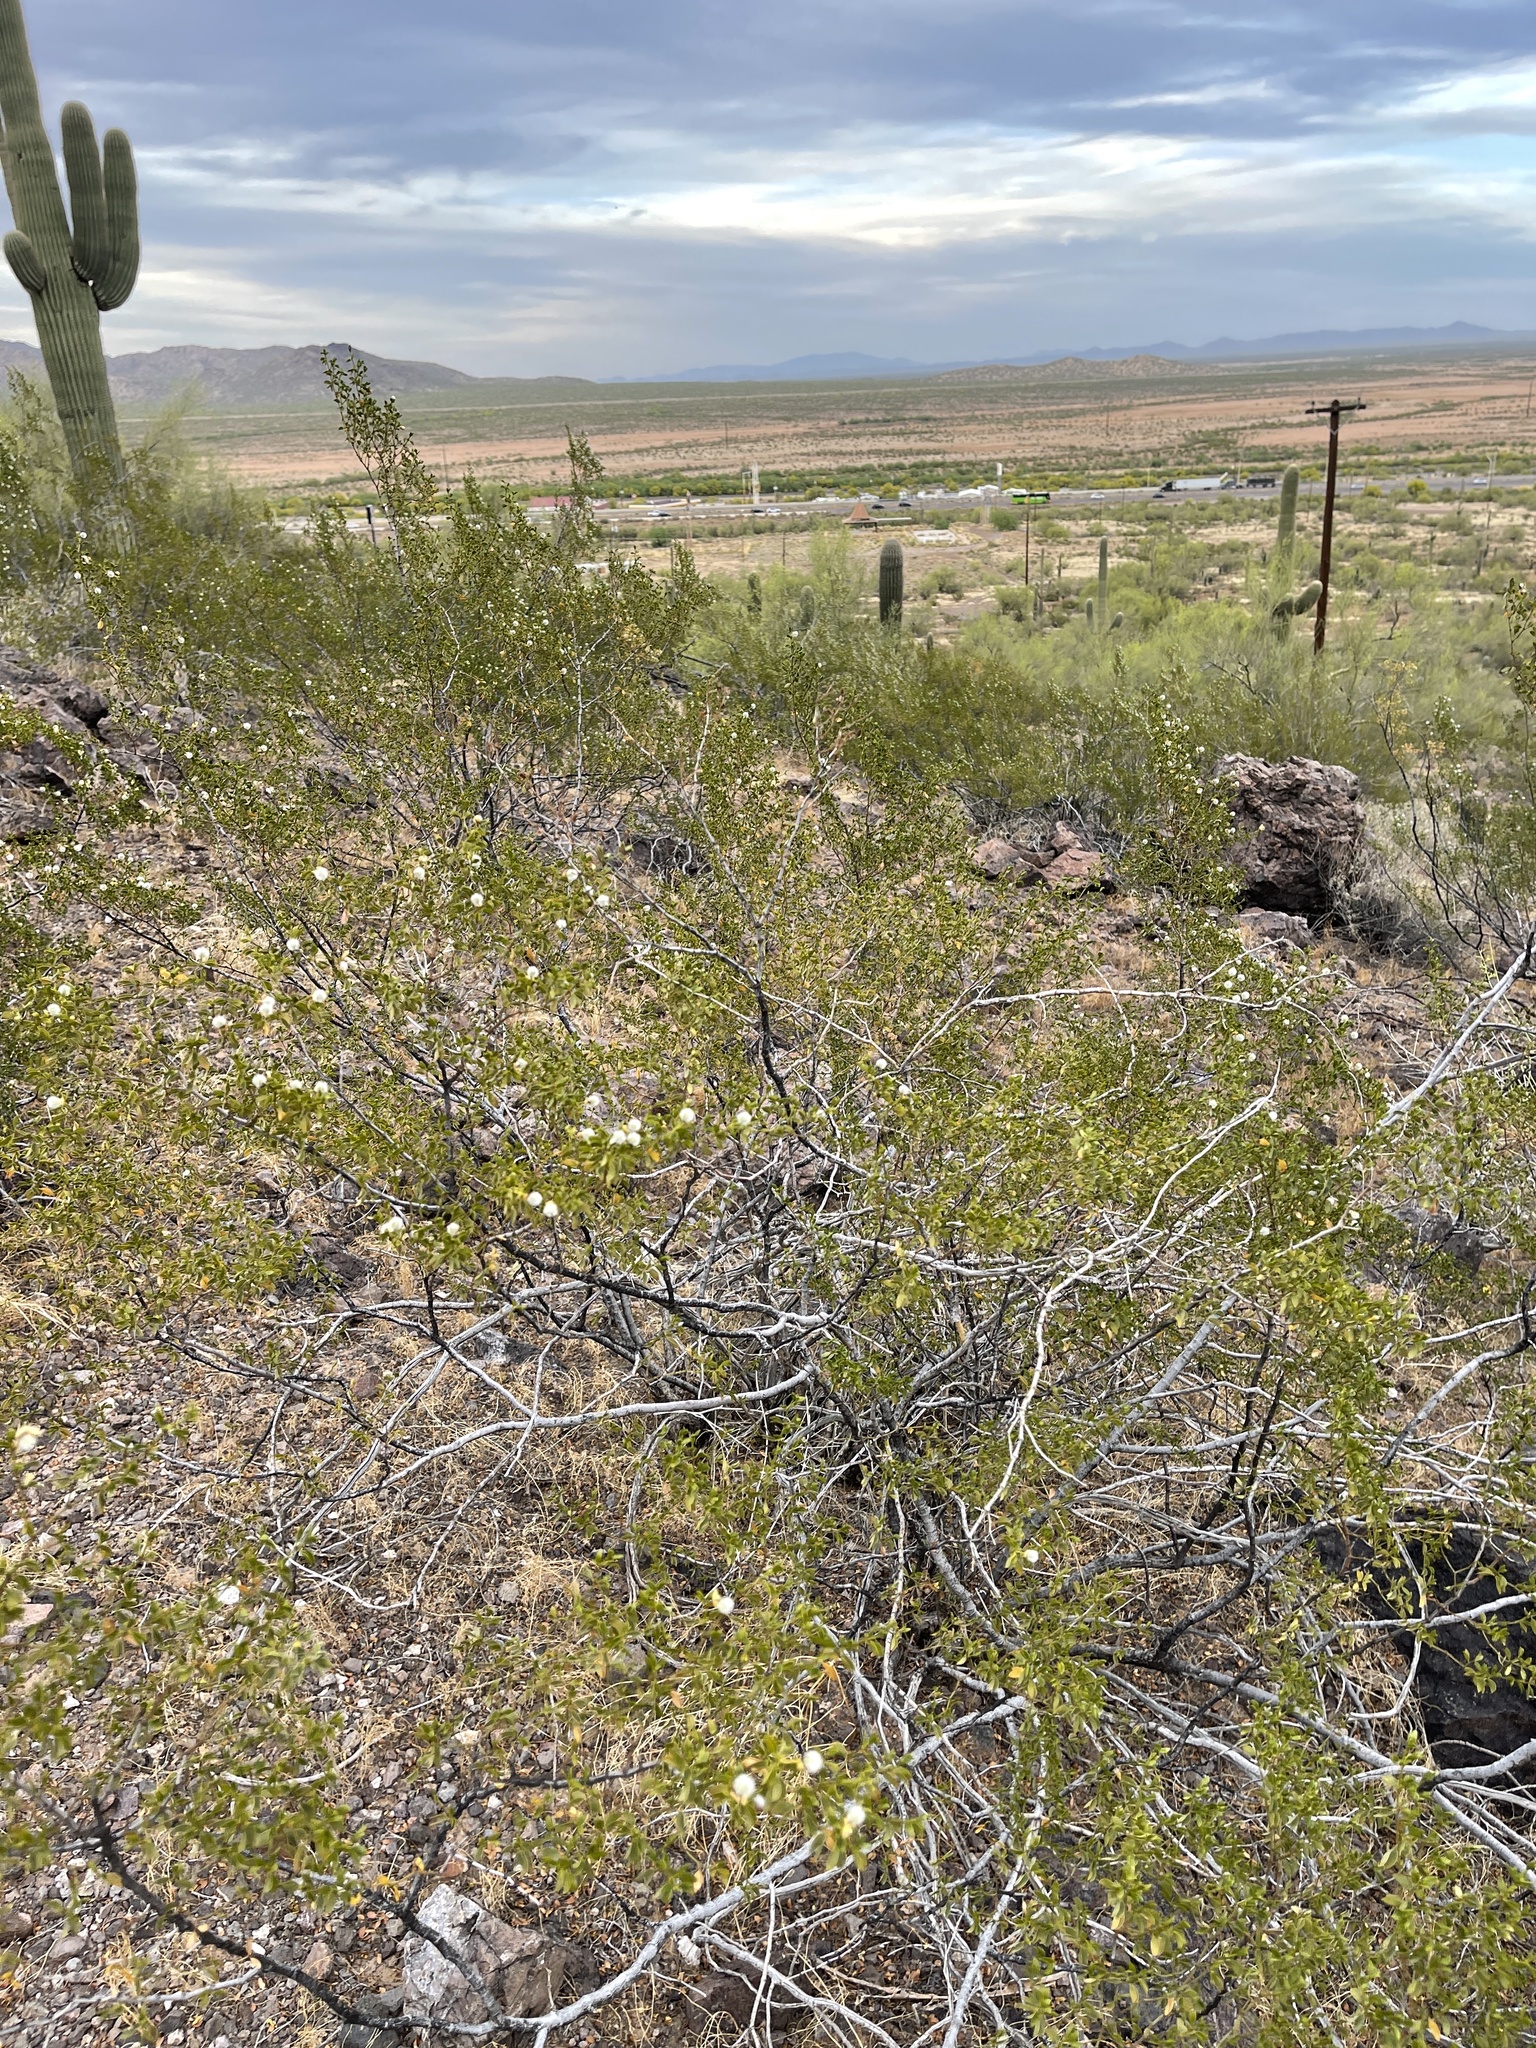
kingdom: Plantae
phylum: Tracheophyta
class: Magnoliopsida
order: Zygophyllales
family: Zygophyllaceae
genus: Larrea
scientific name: Larrea tridentata
